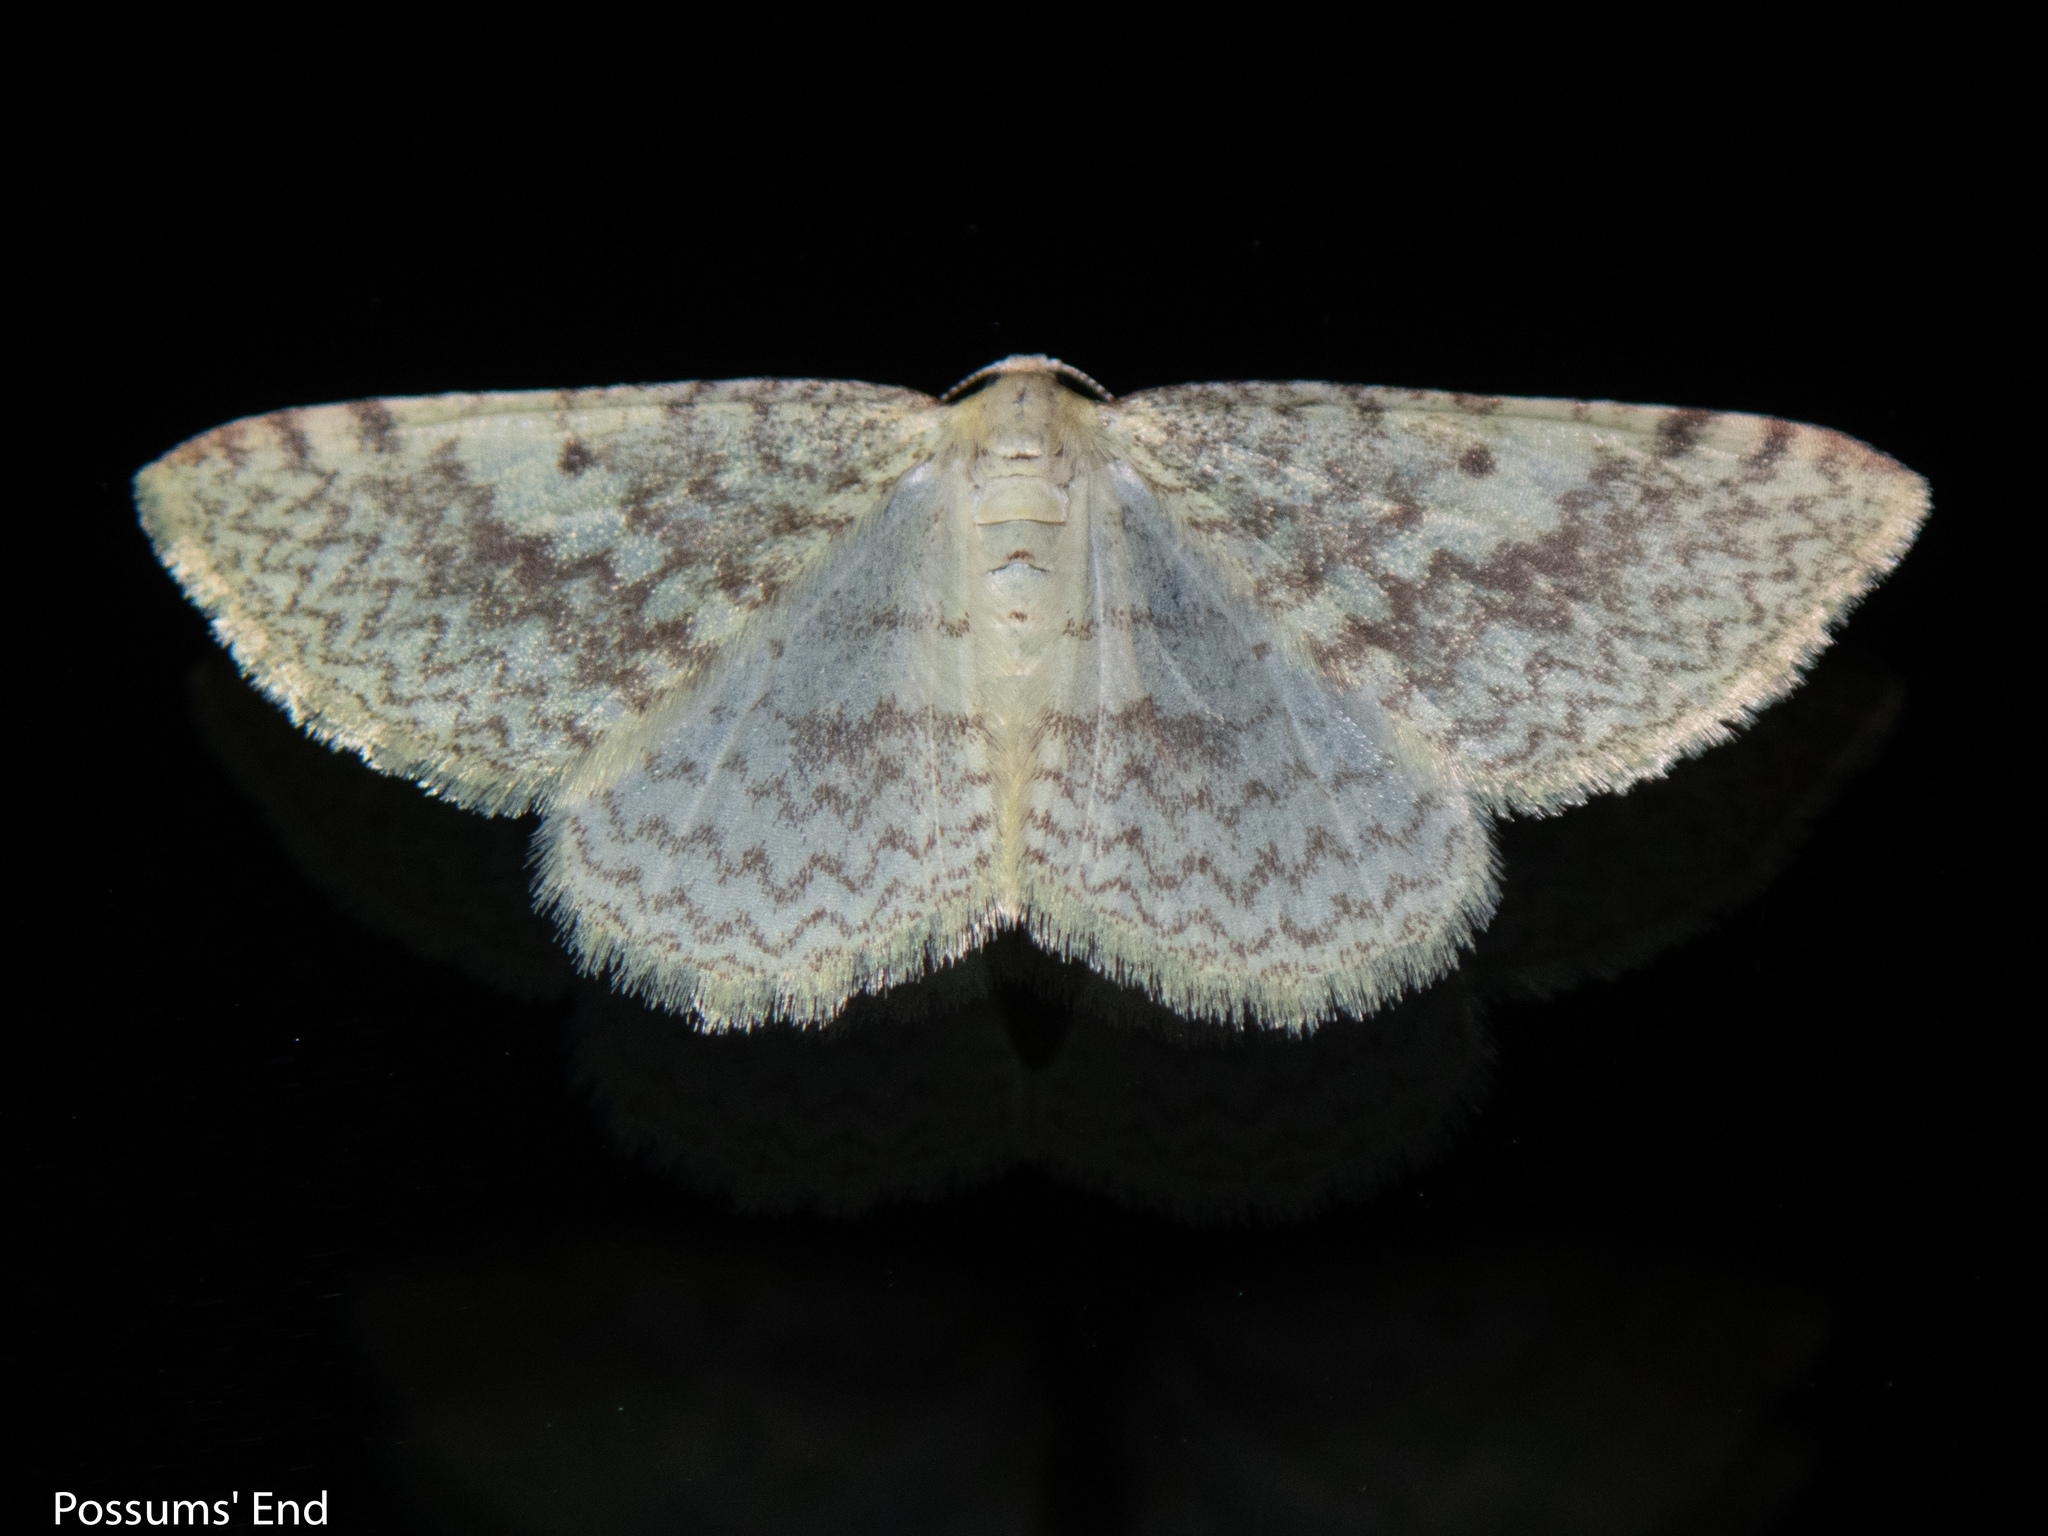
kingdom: Animalia
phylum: Arthropoda
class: Insecta
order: Lepidoptera
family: Geometridae
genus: Epiphryne
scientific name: Epiphryne undosata
